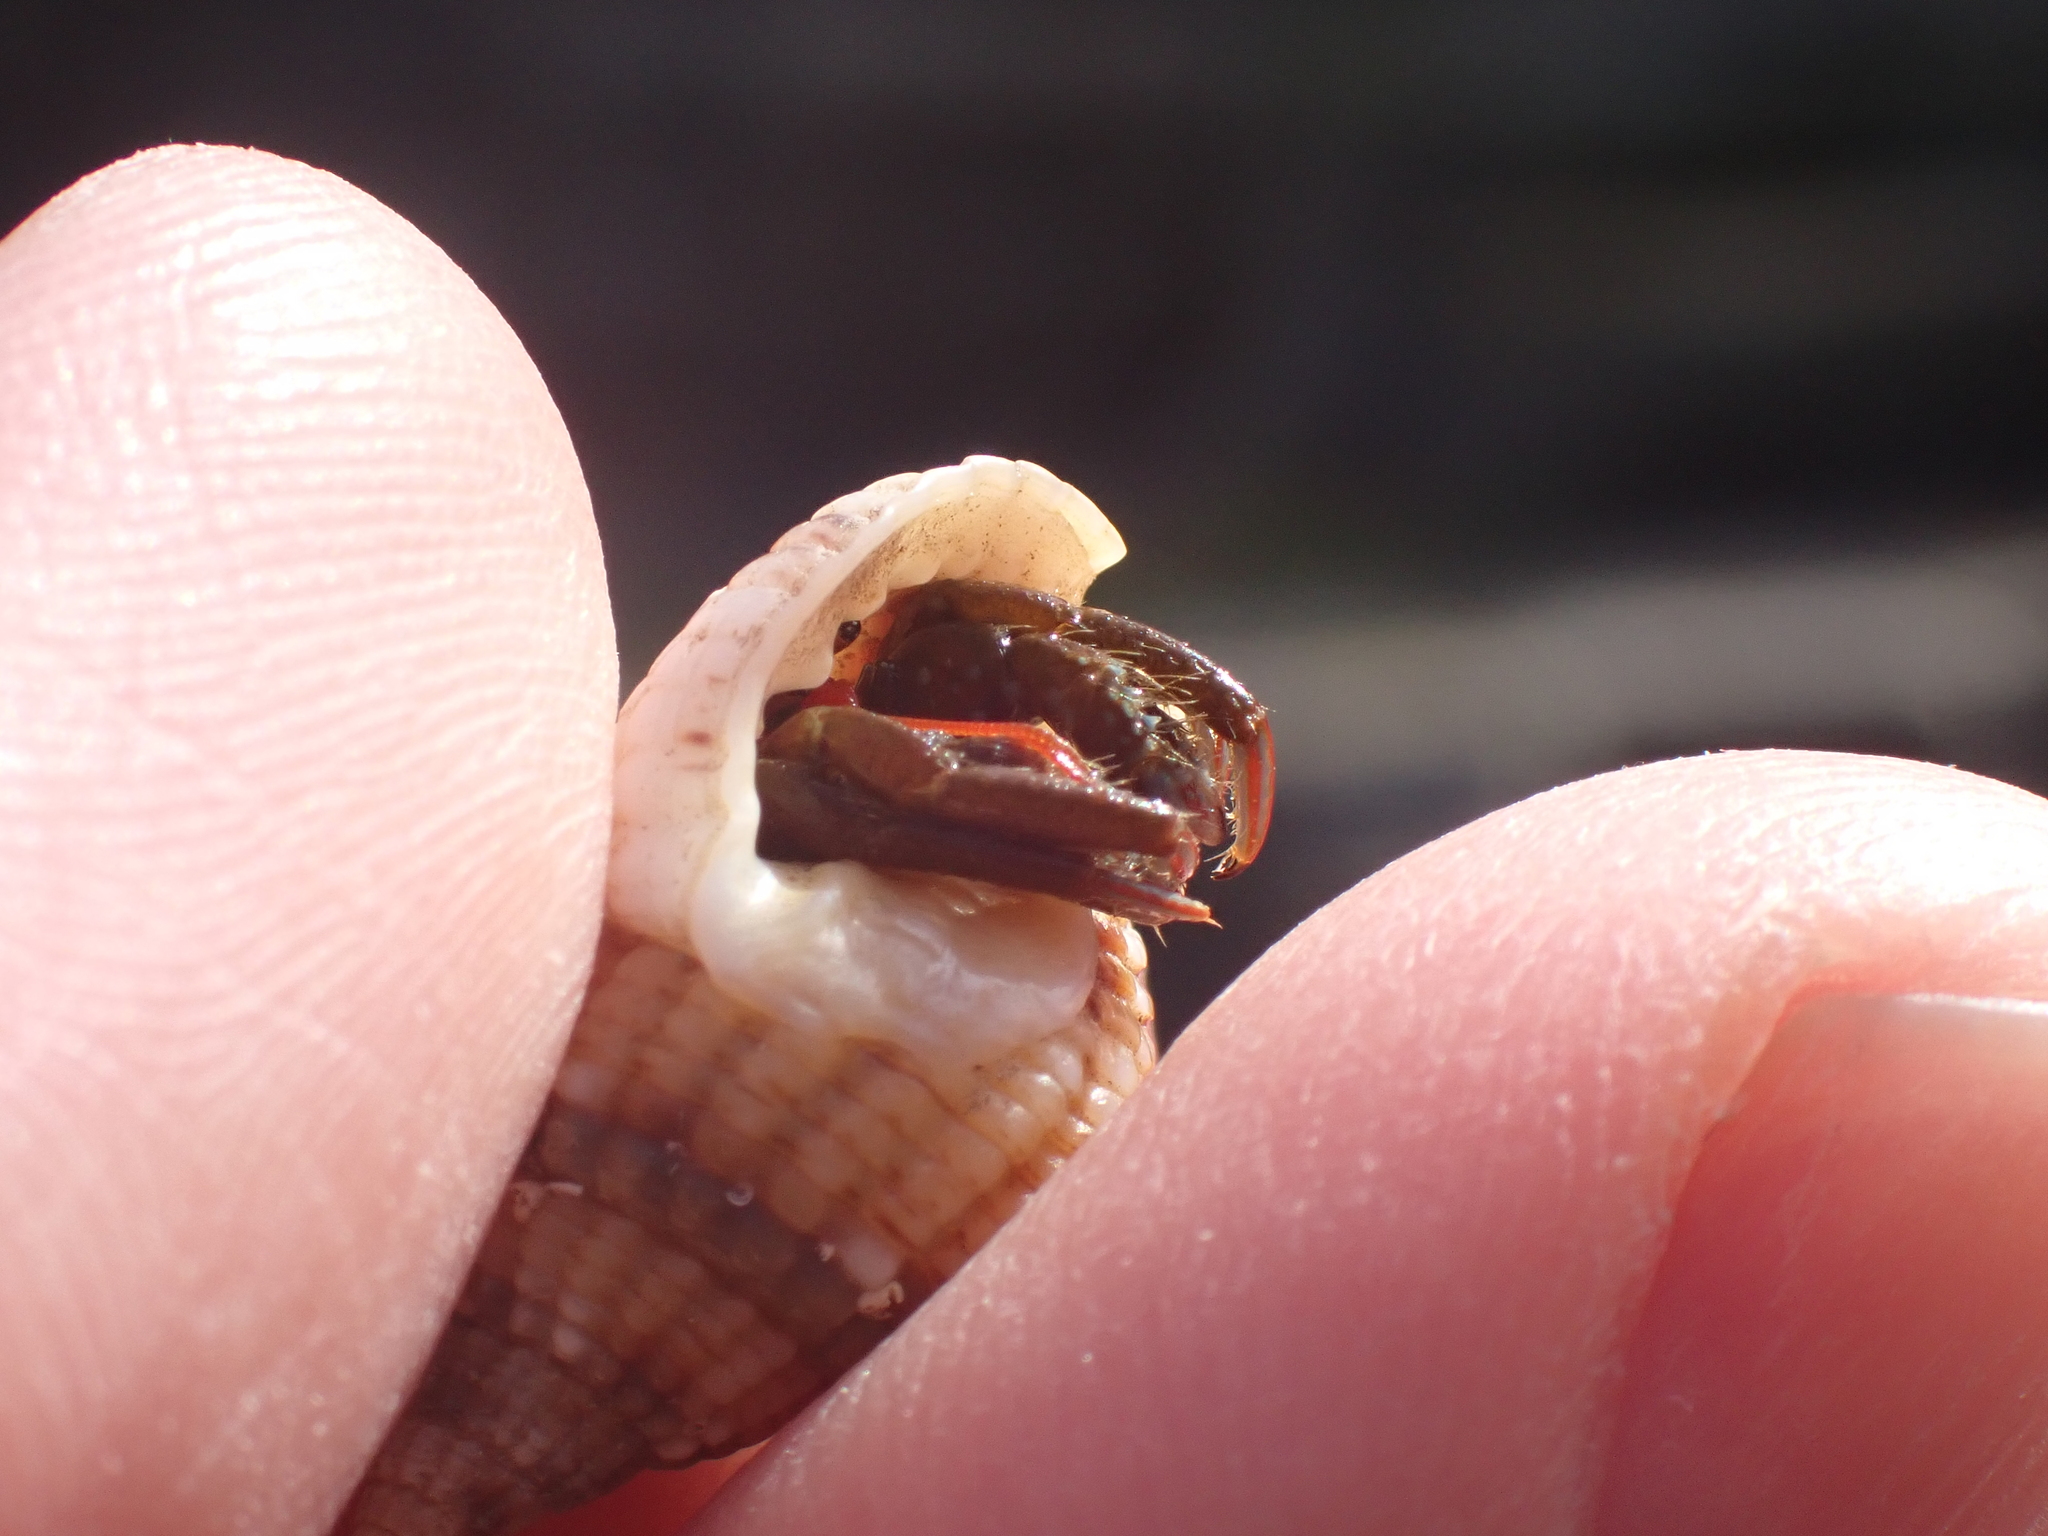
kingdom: Animalia
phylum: Arthropoda
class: Malacostraca
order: Decapoda
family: Diogenidae
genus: Clibanarius
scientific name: Clibanarius erythropus
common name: Hermit crab
